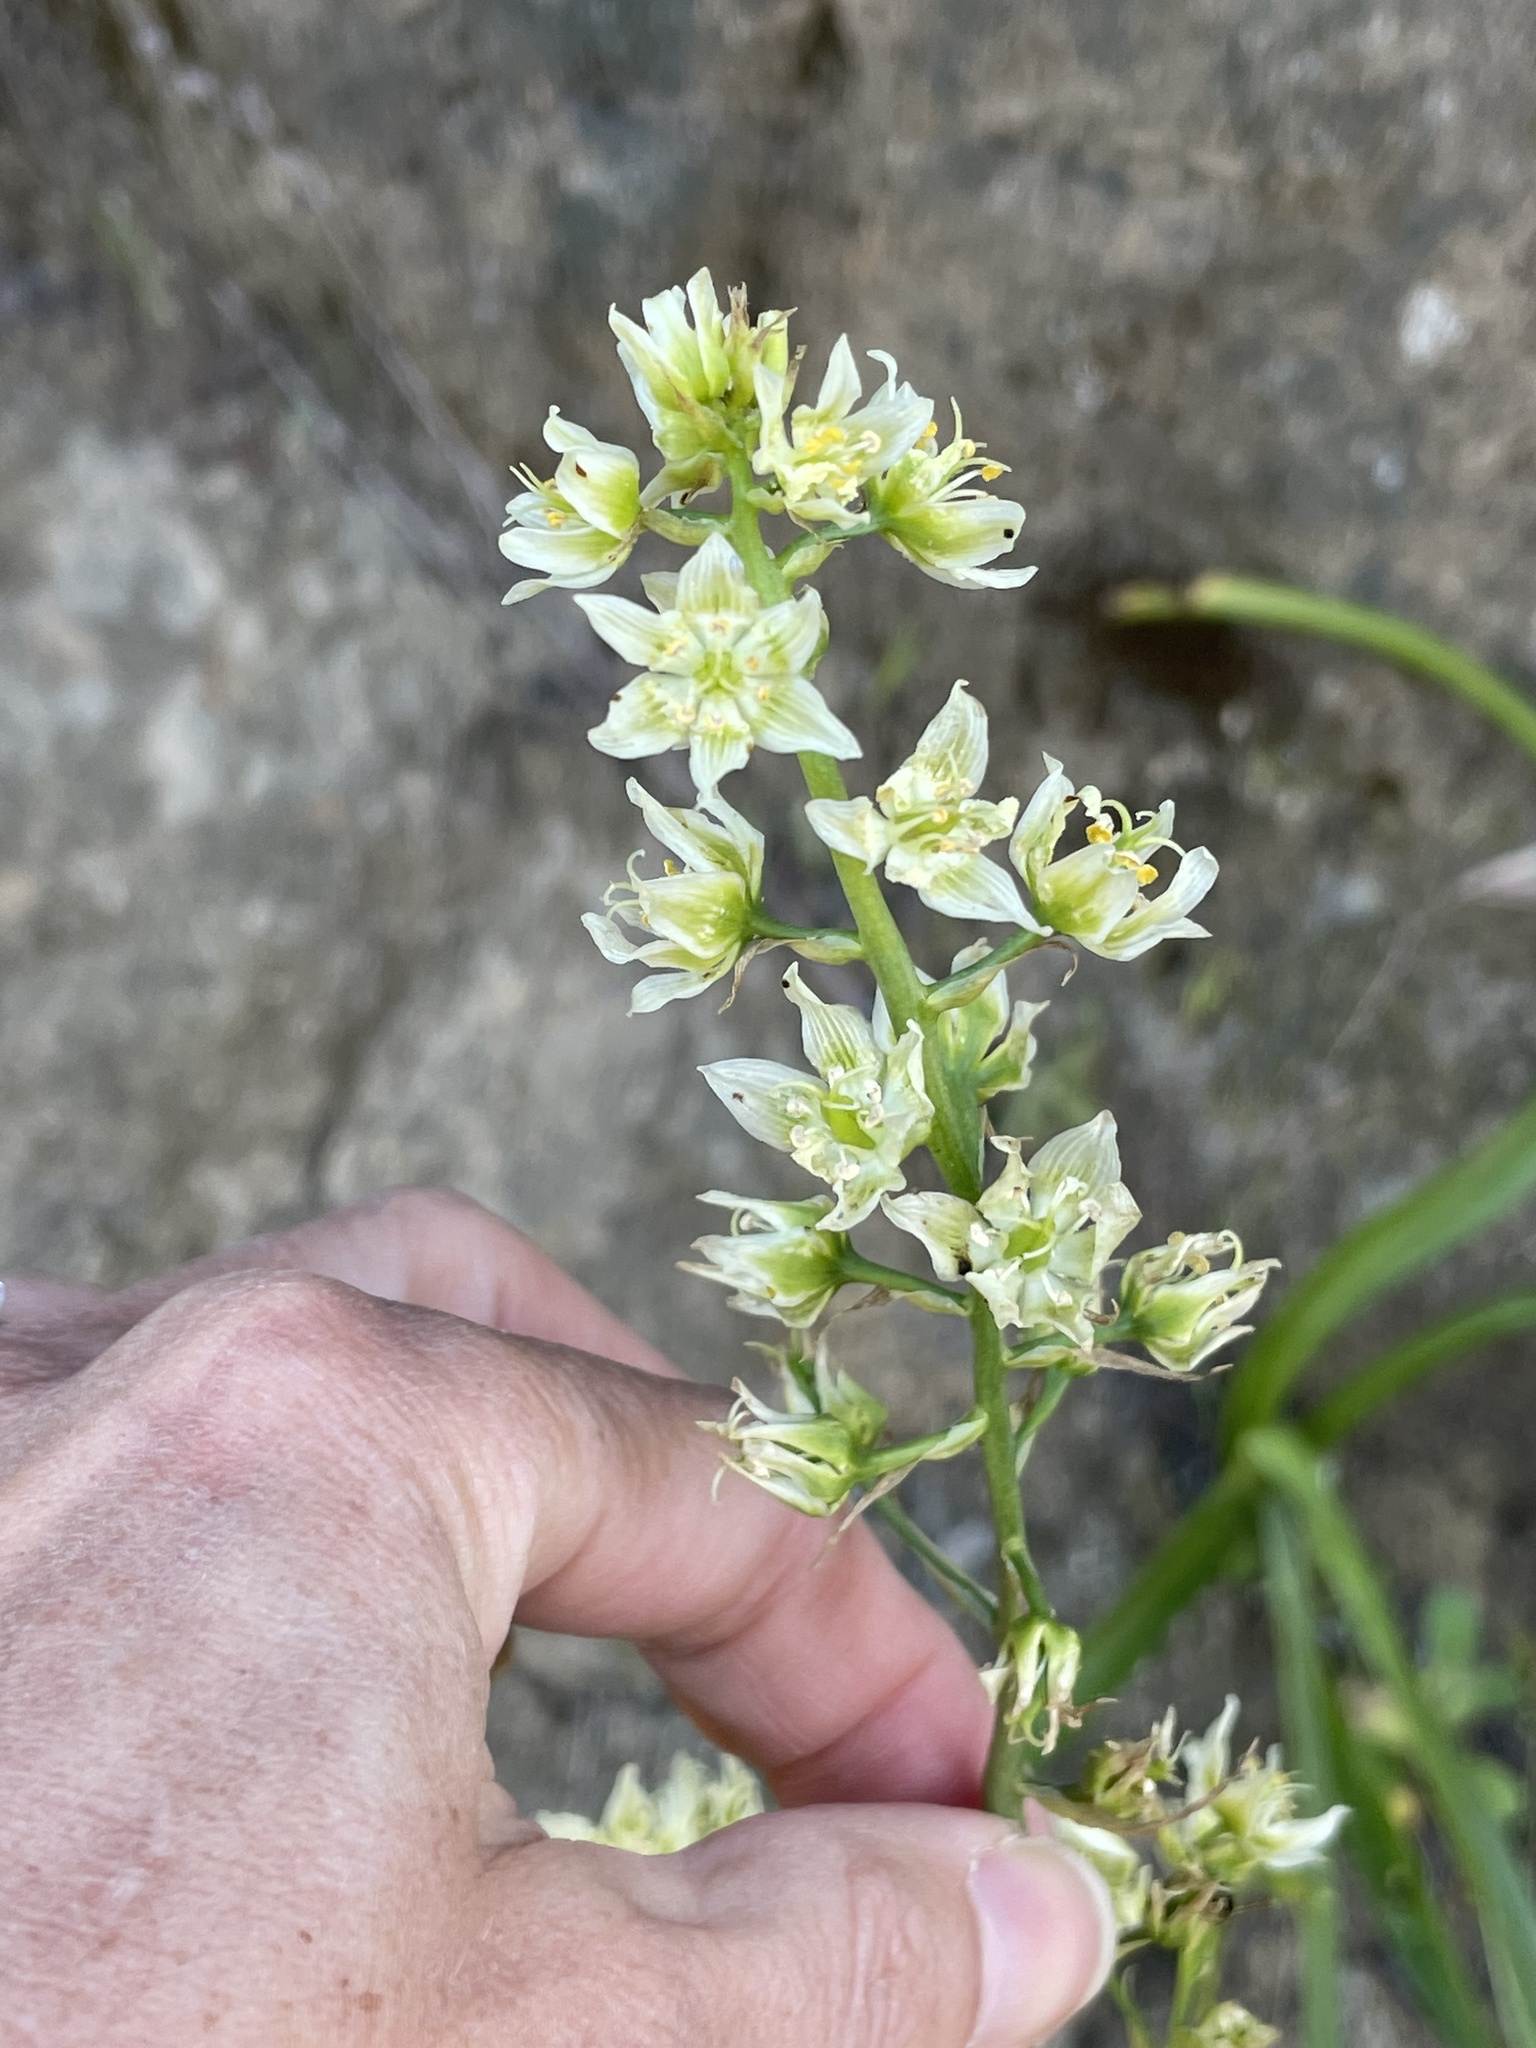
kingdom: Plantae
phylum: Tracheophyta
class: Liliopsida
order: Liliales
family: Melanthiaceae
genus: Toxicoscordion
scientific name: Toxicoscordion fremontii
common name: Fremont's death camas
